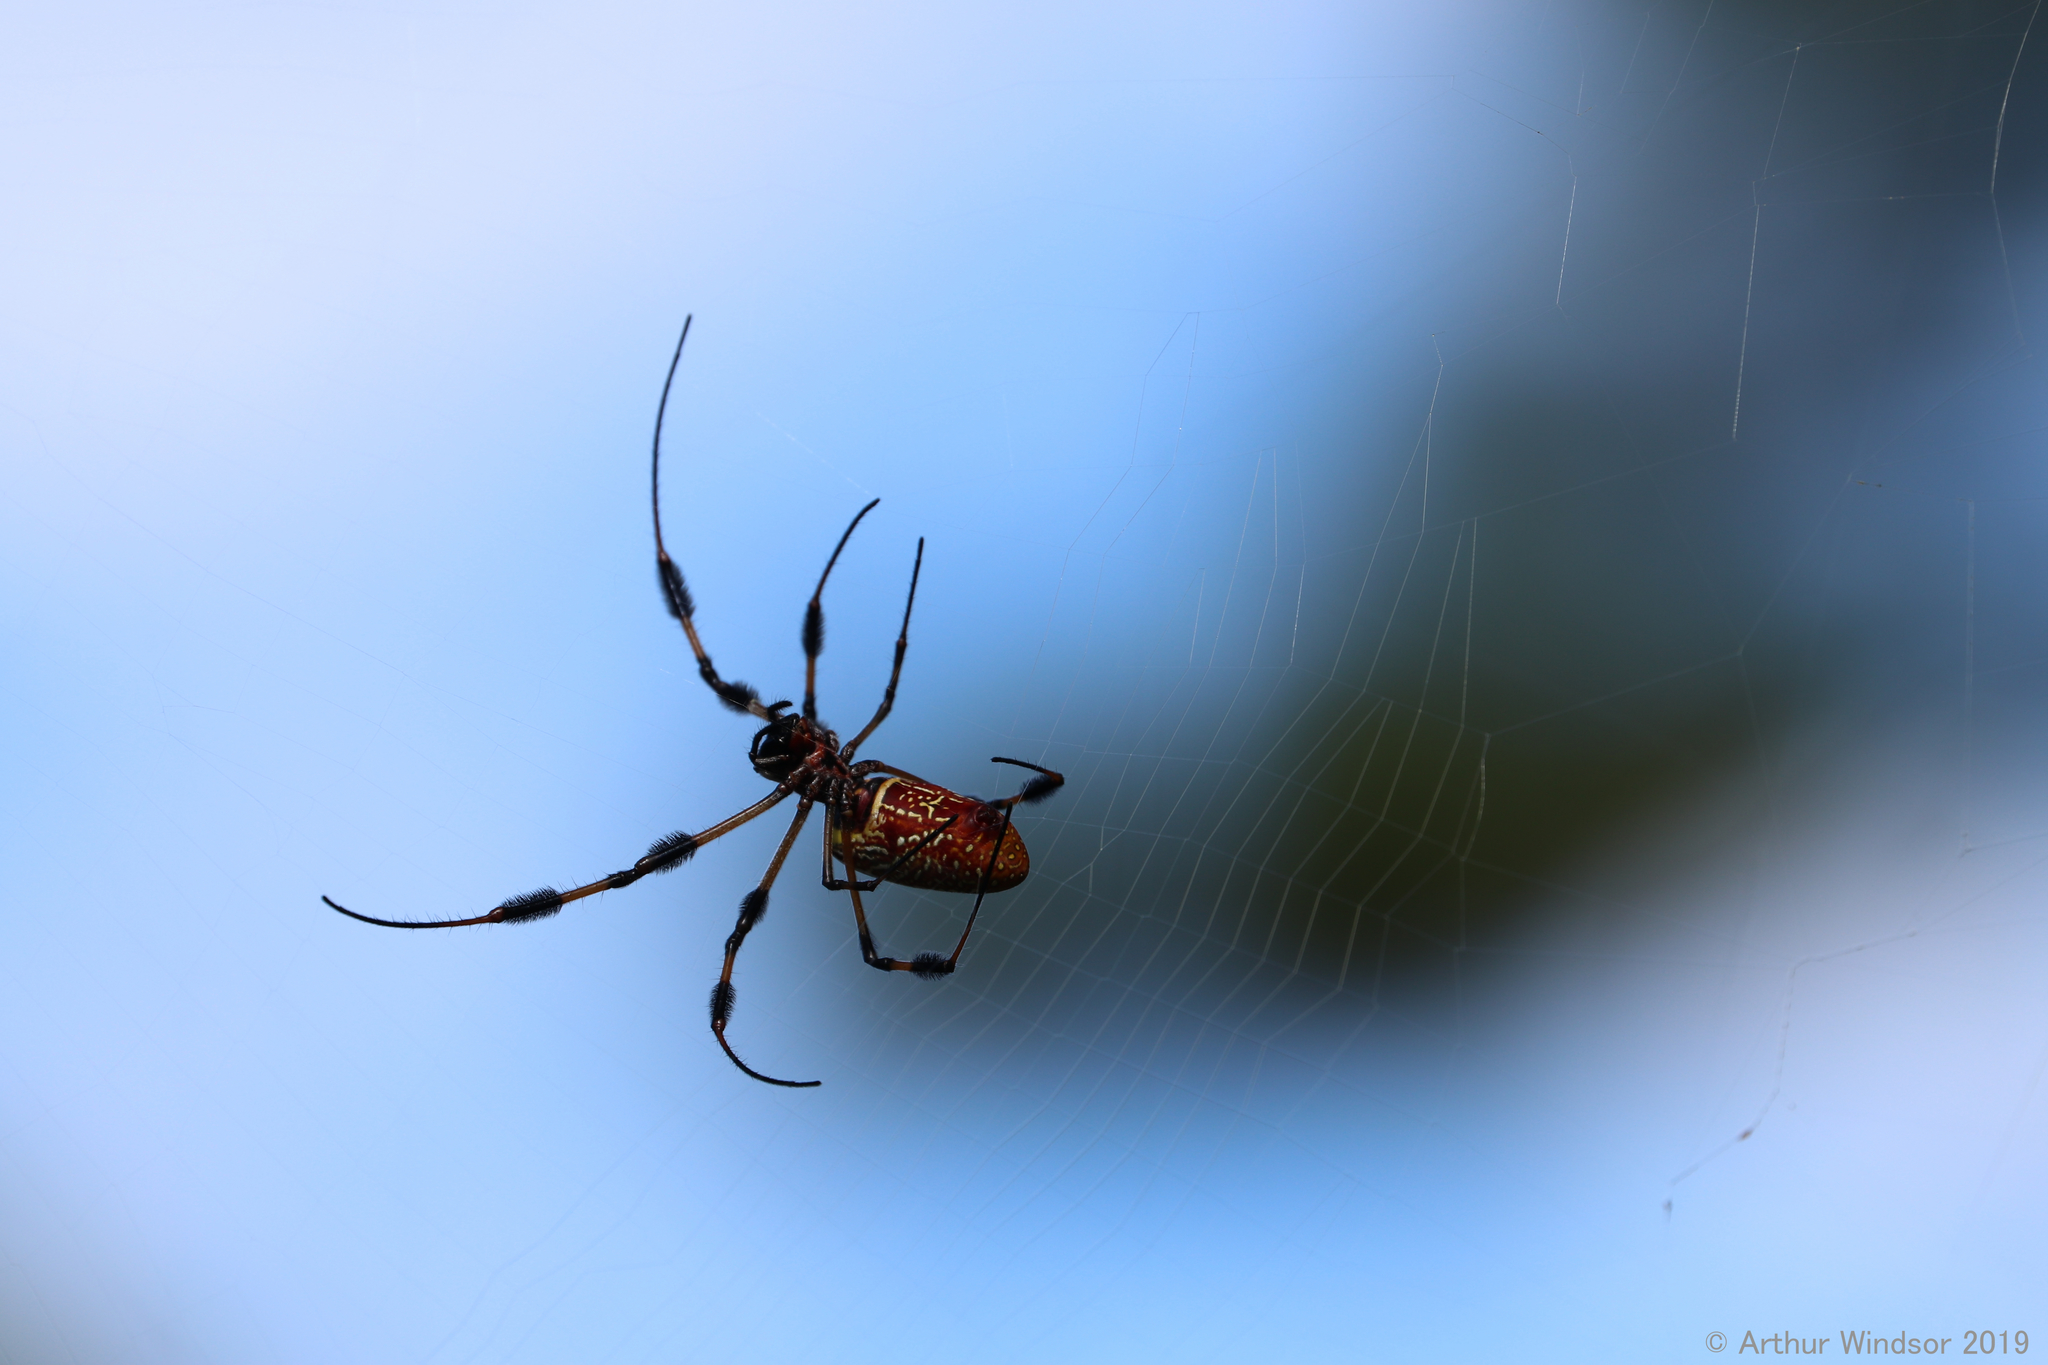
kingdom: Animalia
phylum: Arthropoda
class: Arachnida
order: Araneae
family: Araneidae
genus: Trichonephila
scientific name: Trichonephila clavipes
